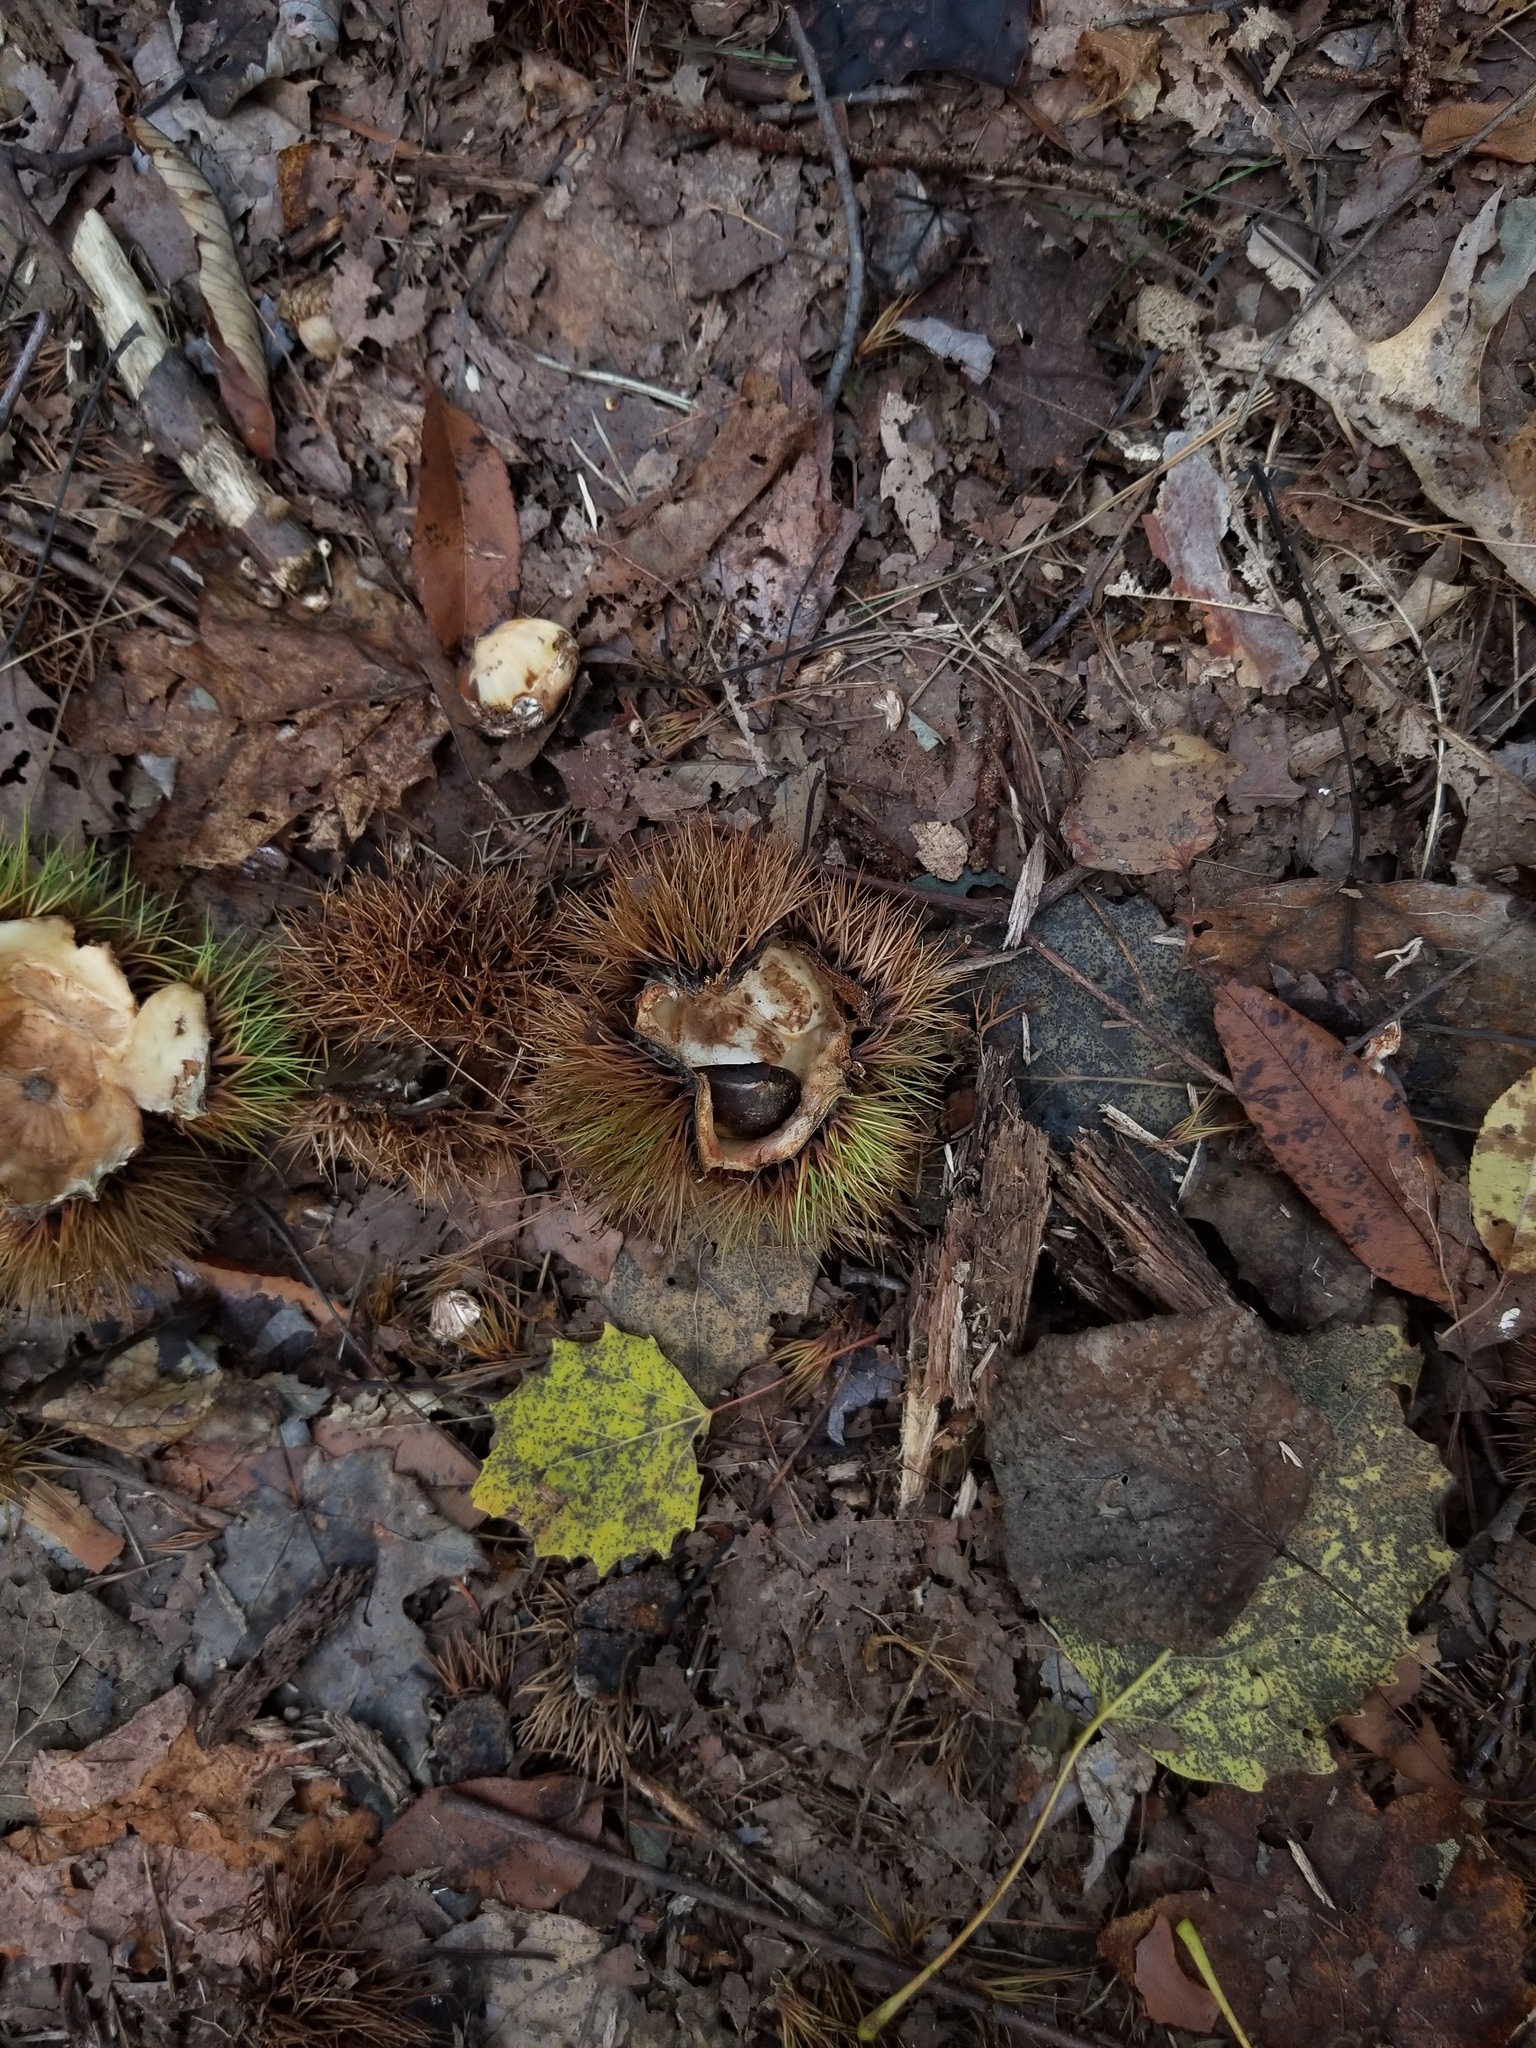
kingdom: Plantae
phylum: Tracheophyta
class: Magnoliopsida
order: Fagales
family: Fagaceae
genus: Castanea
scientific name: Castanea dentata
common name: American chestnut
